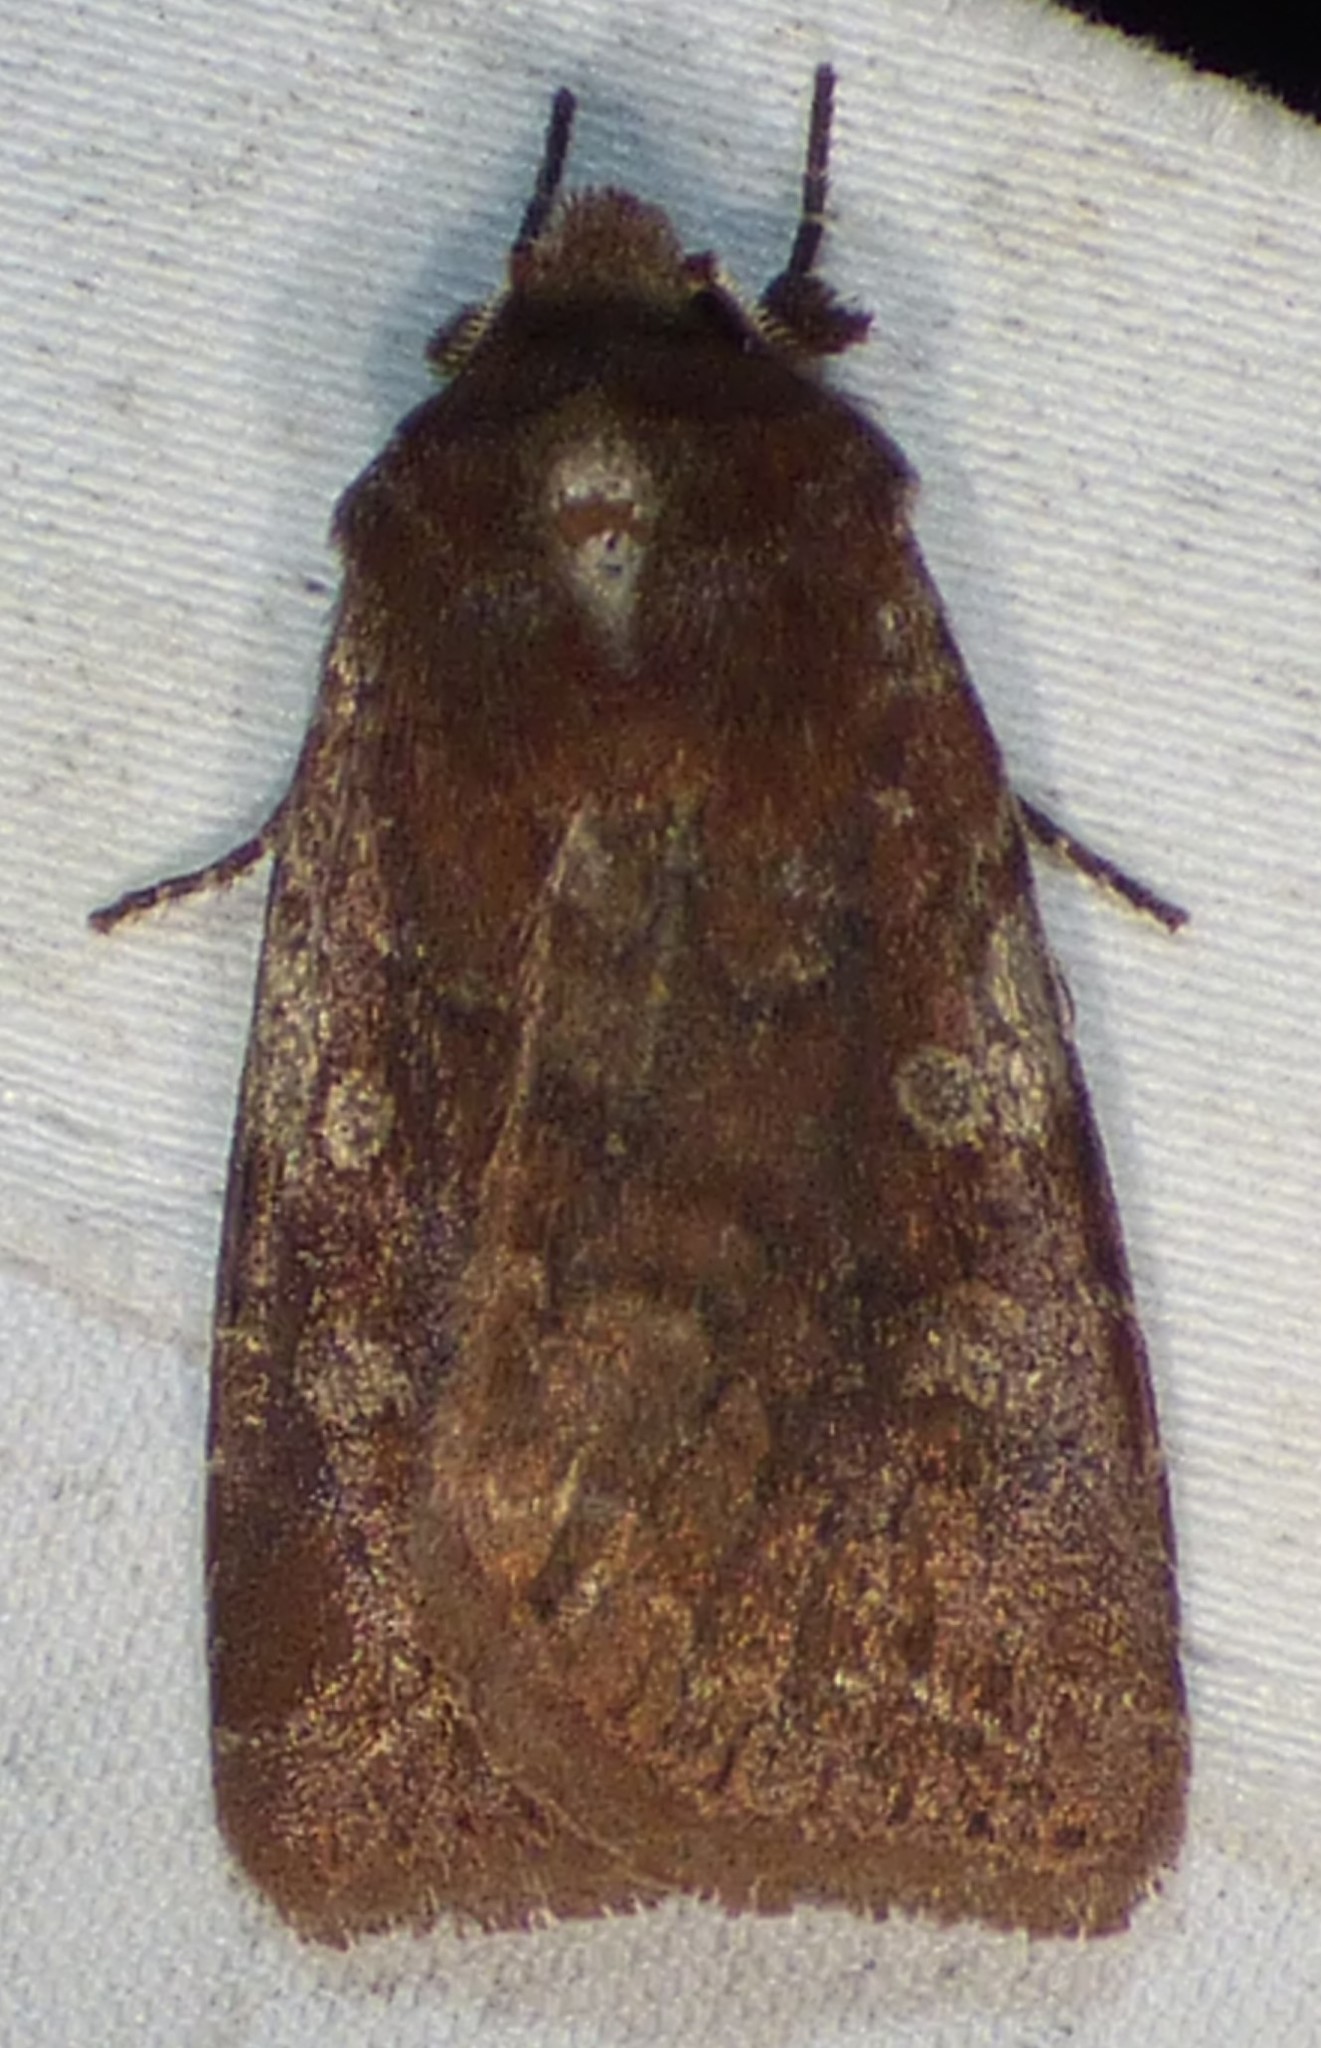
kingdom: Animalia
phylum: Arthropoda
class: Insecta
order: Lepidoptera
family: Noctuidae
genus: Cerastis
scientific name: Cerastis tenebrifera
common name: Reddish speckled dart
